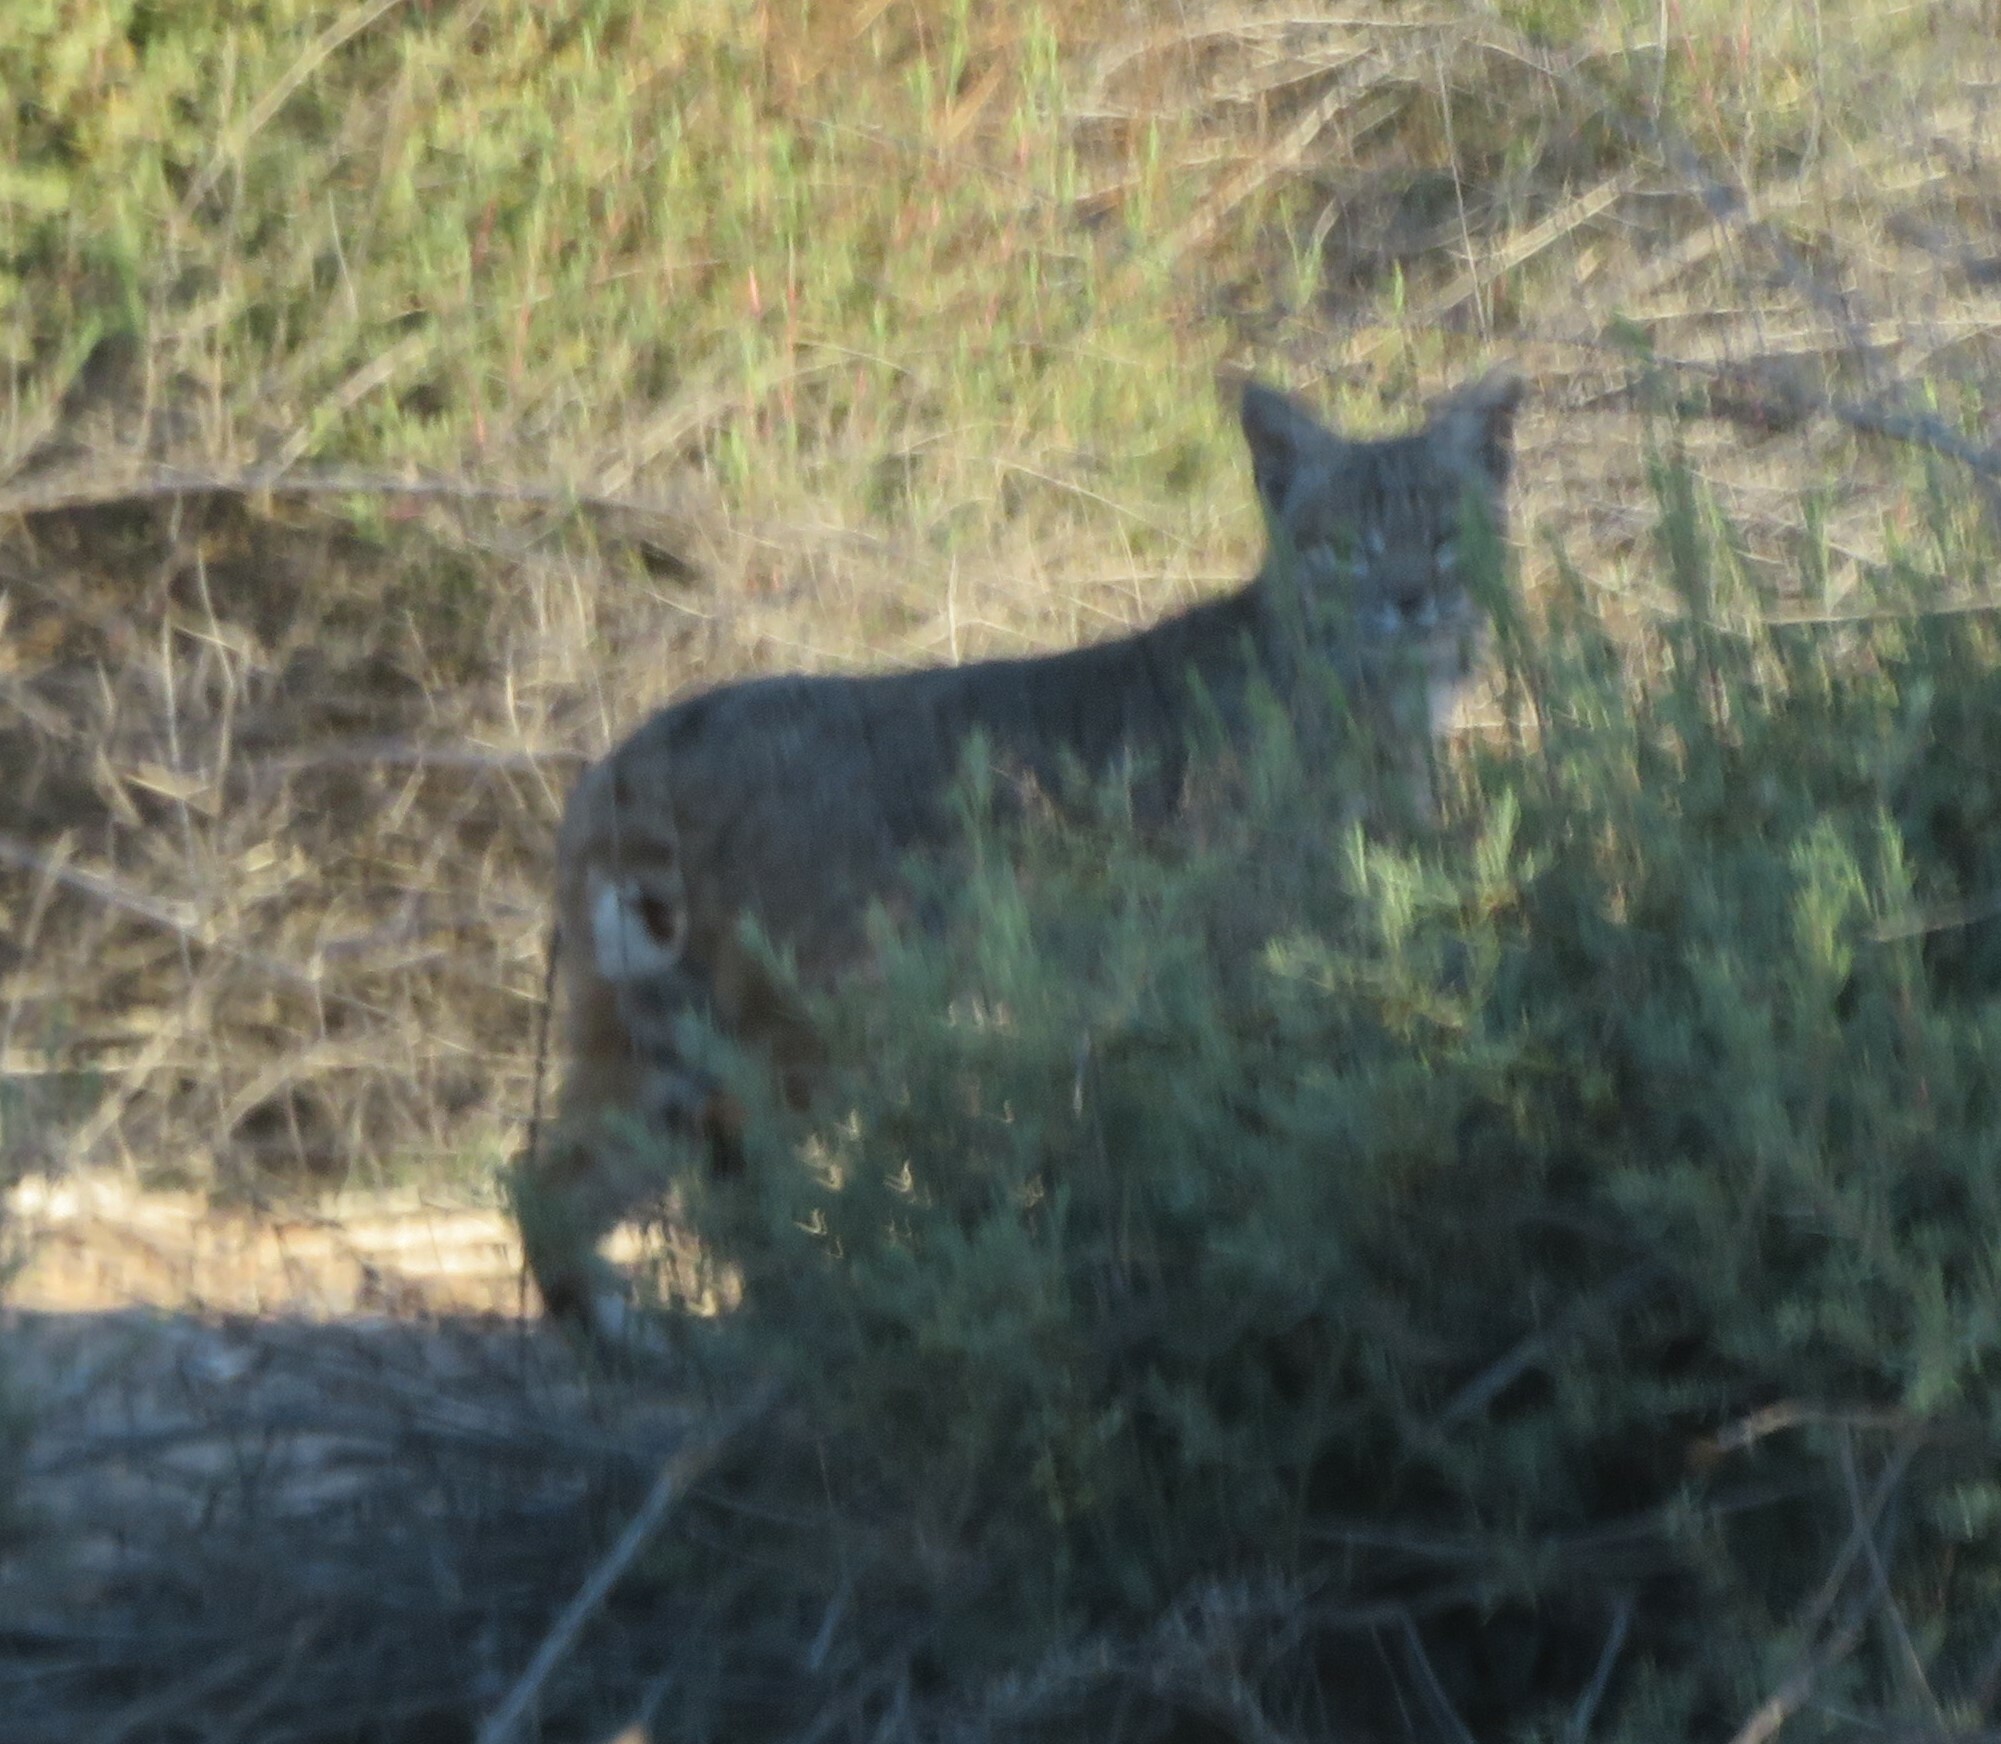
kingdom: Animalia
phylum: Chordata
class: Mammalia
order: Carnivora
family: Felidae
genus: Lynx
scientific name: Lynx rufus
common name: Bobcat
